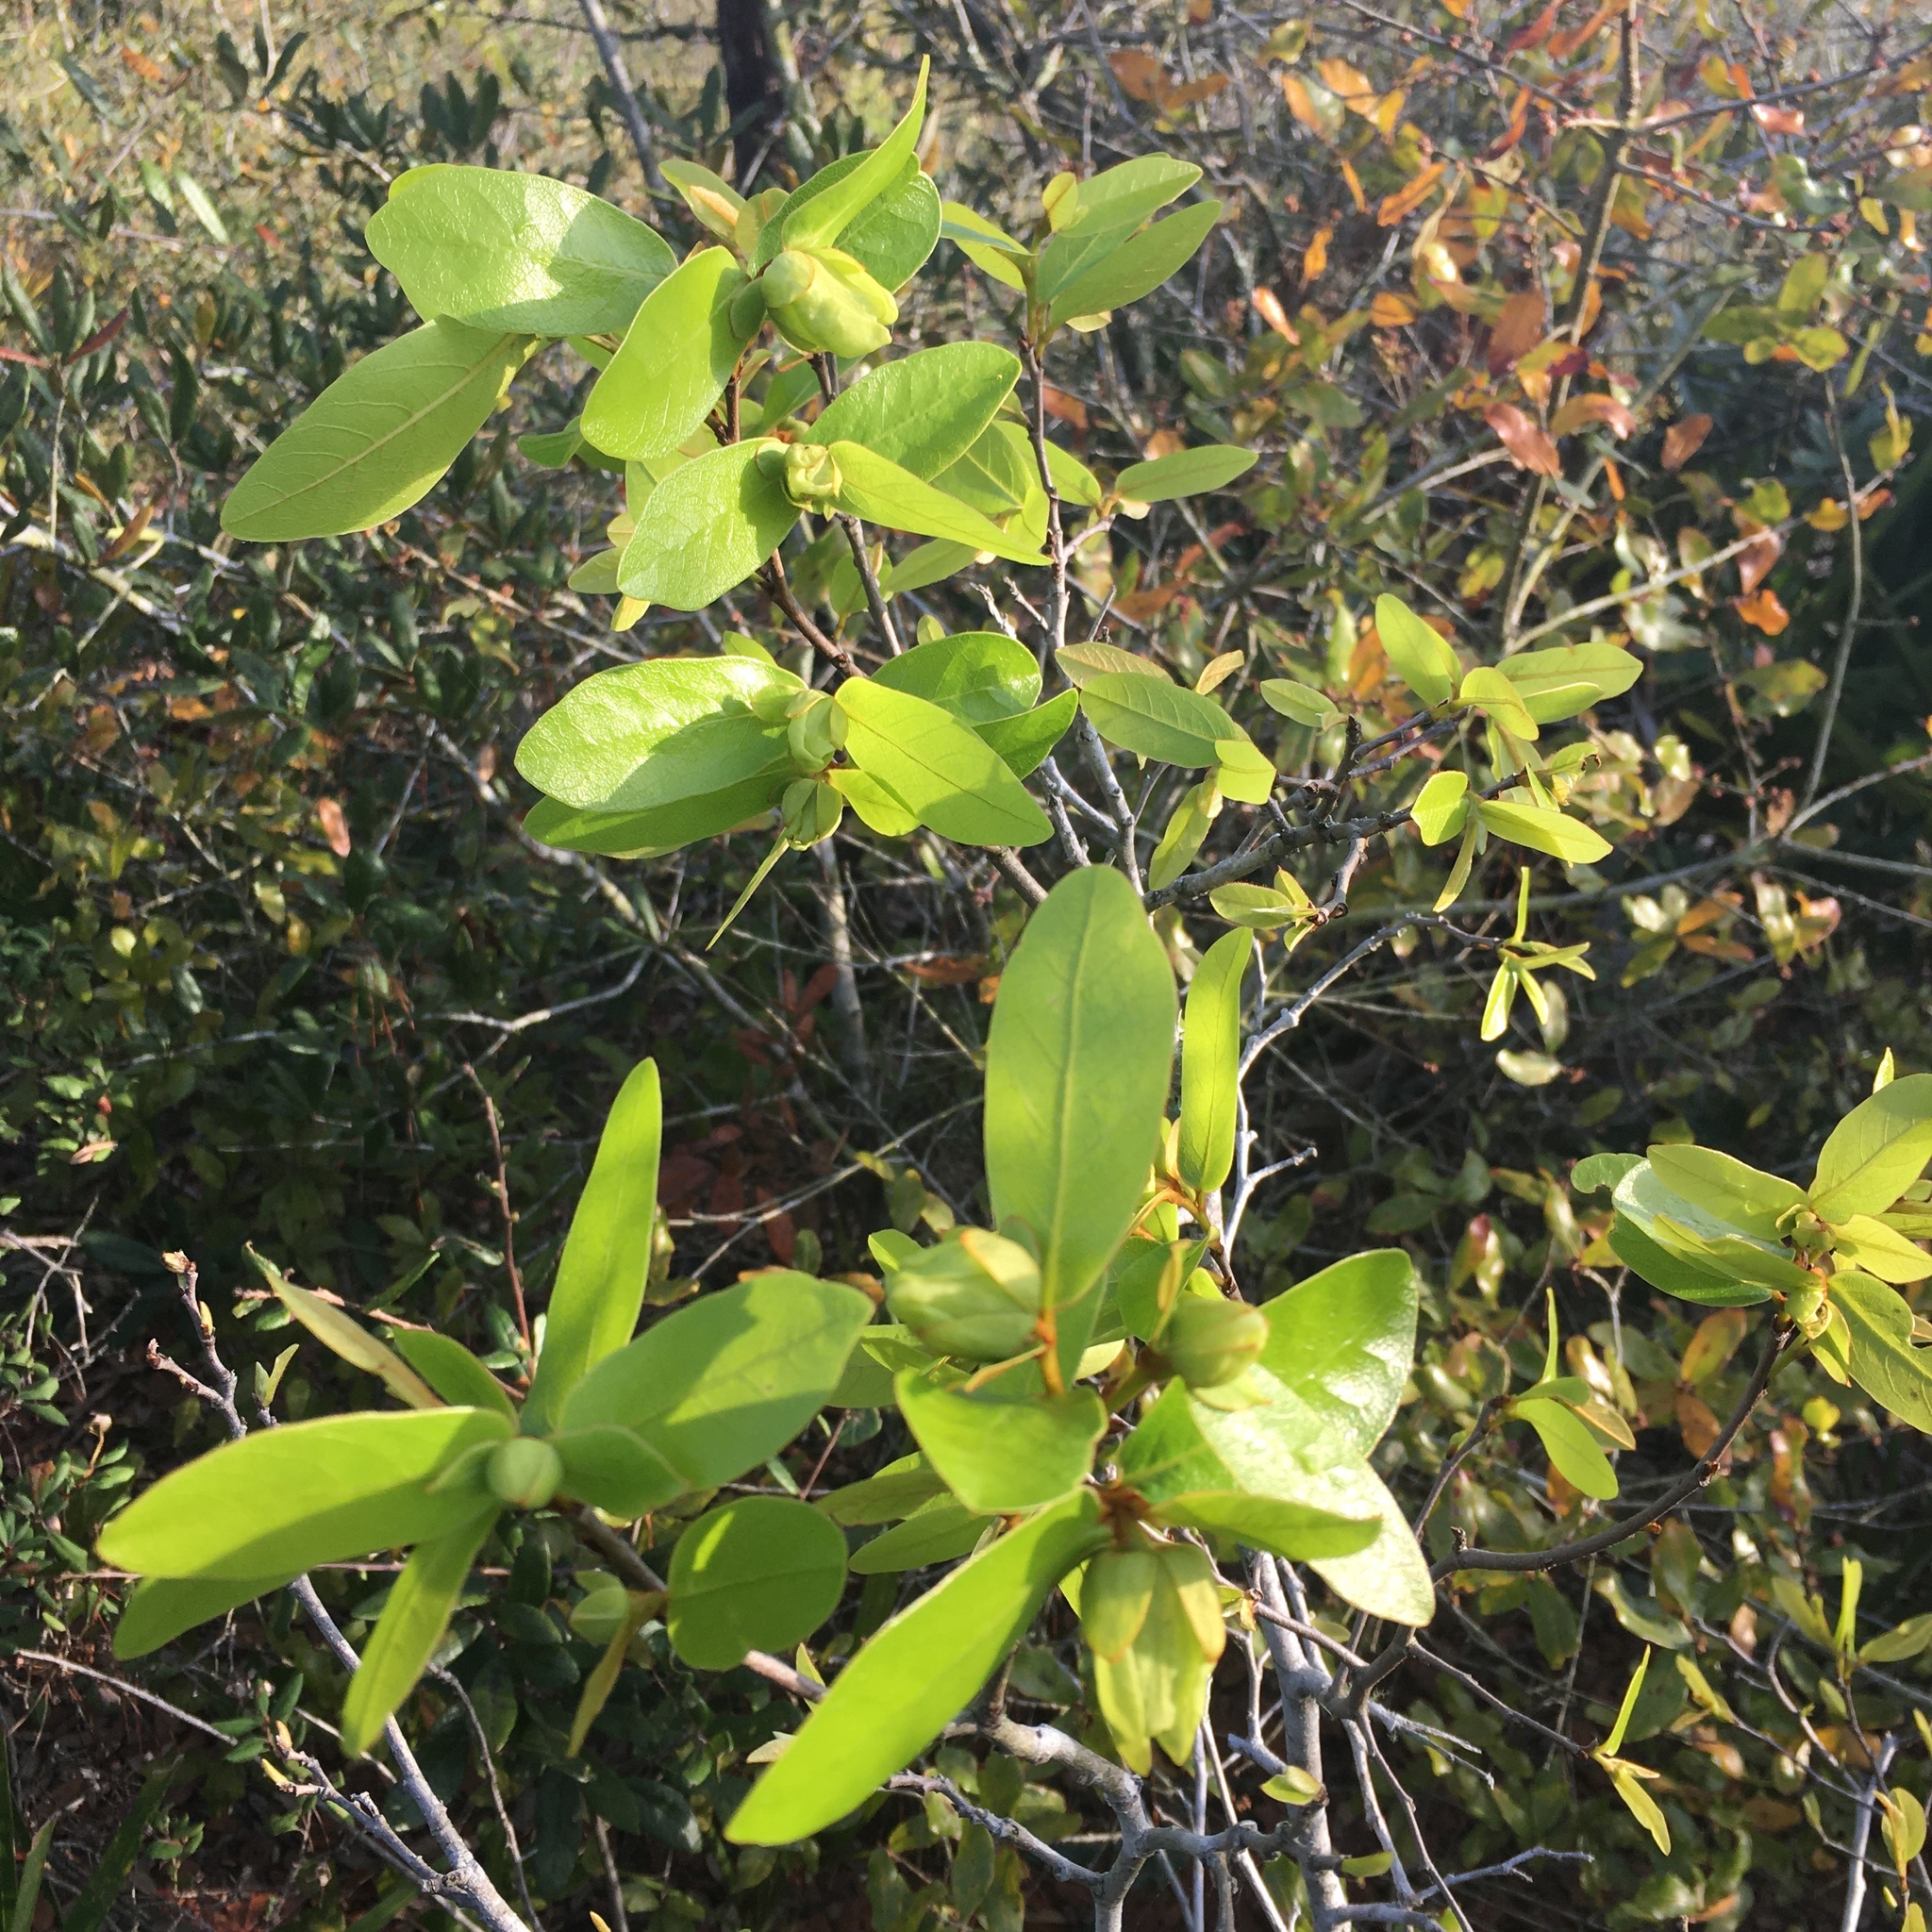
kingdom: Plantae
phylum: Tracheophyta
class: Magnoliopsida
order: Magnoliales
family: Annonaceae
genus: Asimina
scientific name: Asimina obovata
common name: Flag pawpaw
